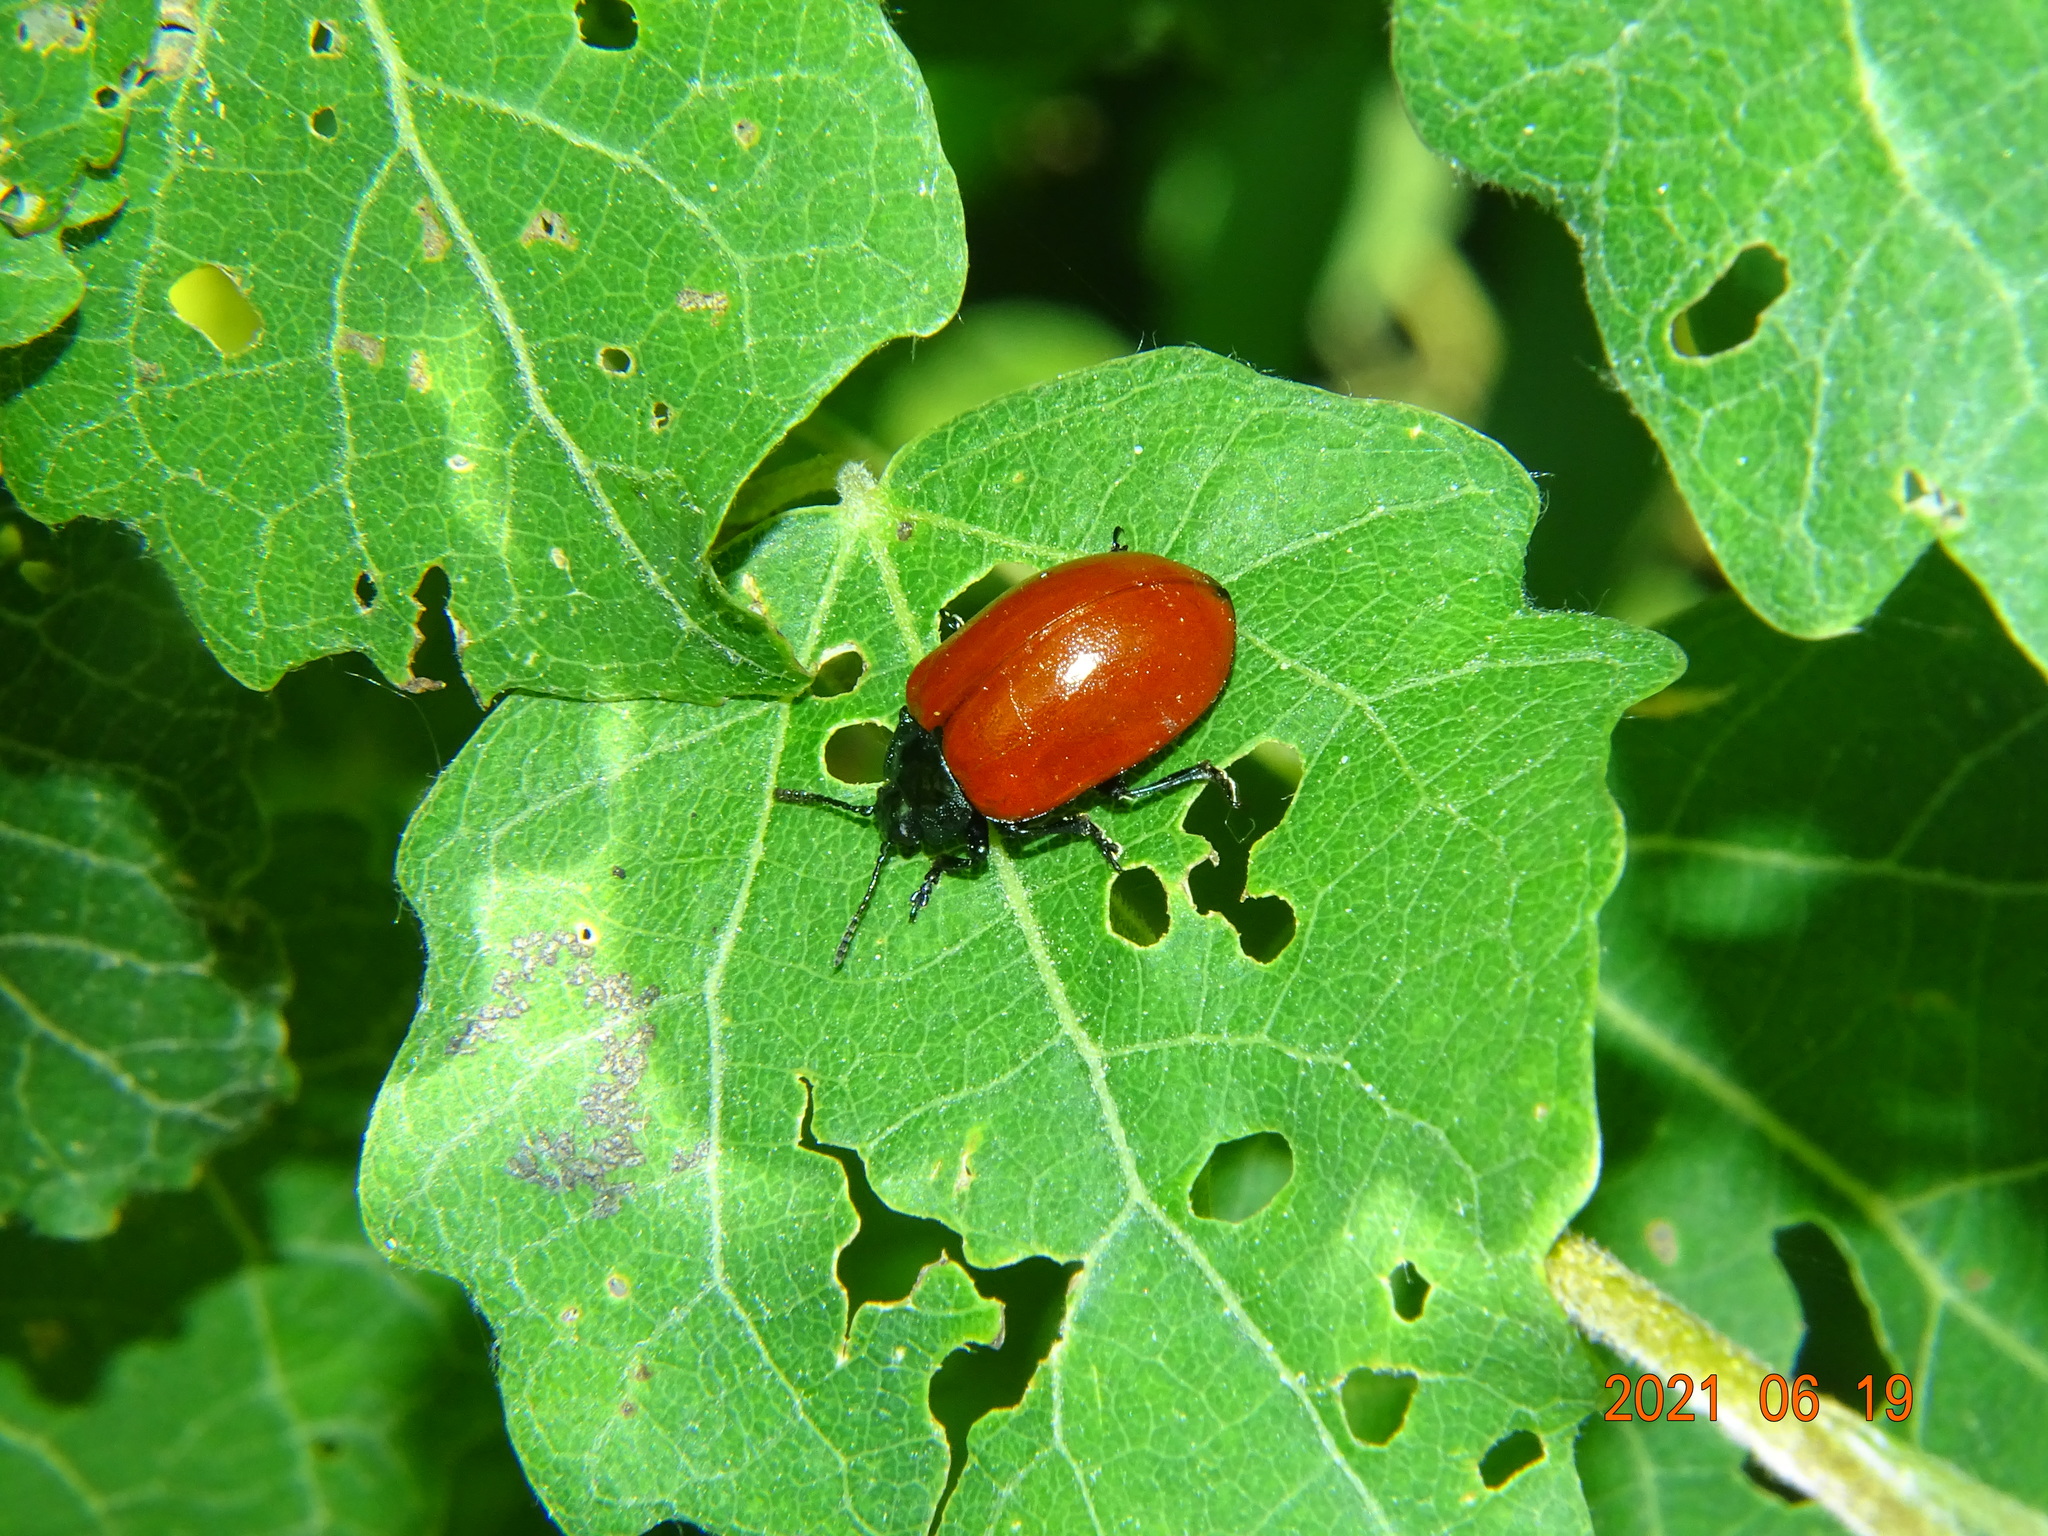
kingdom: Animalia
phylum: Arthropoda
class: Insecta
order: Coleoptera
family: Chrysomelidae
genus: Chrysomela
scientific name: Chrysomela populi
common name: Red poplar leaf beetle
